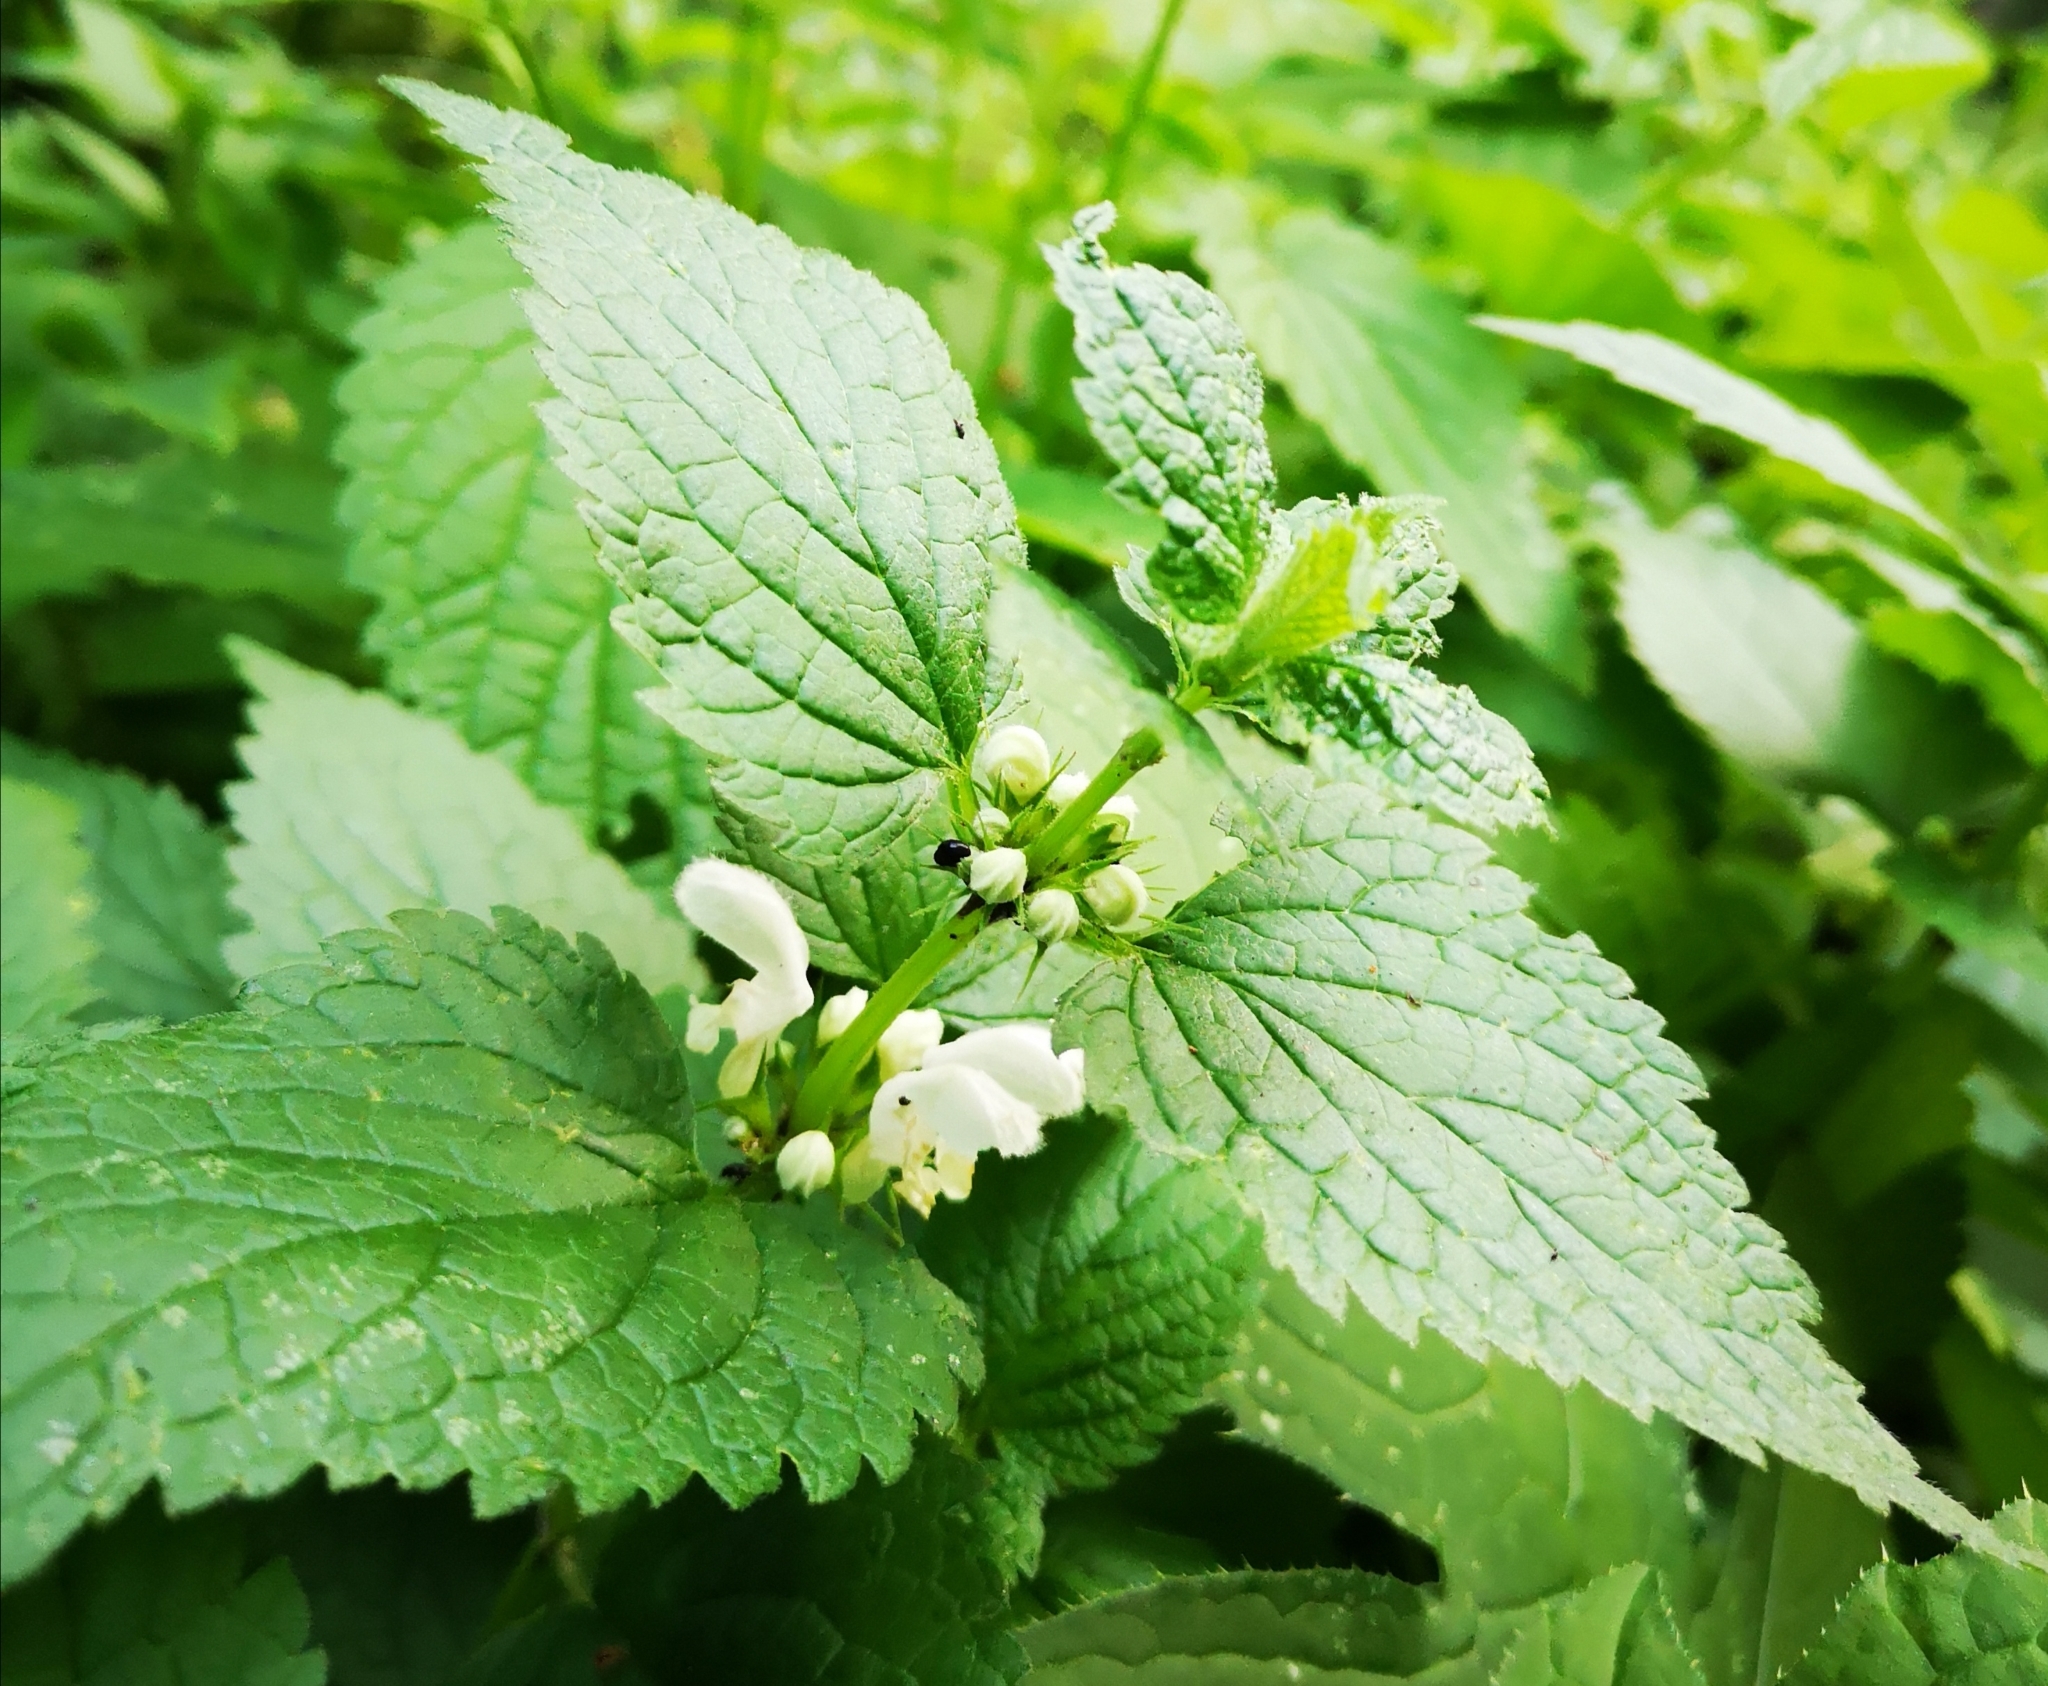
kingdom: Plantae
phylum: Tracheophyta
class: Magnoliopsida
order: Lamiales
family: Lamiaceae
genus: Lamium
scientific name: Lamium album
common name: White dead-nettle
